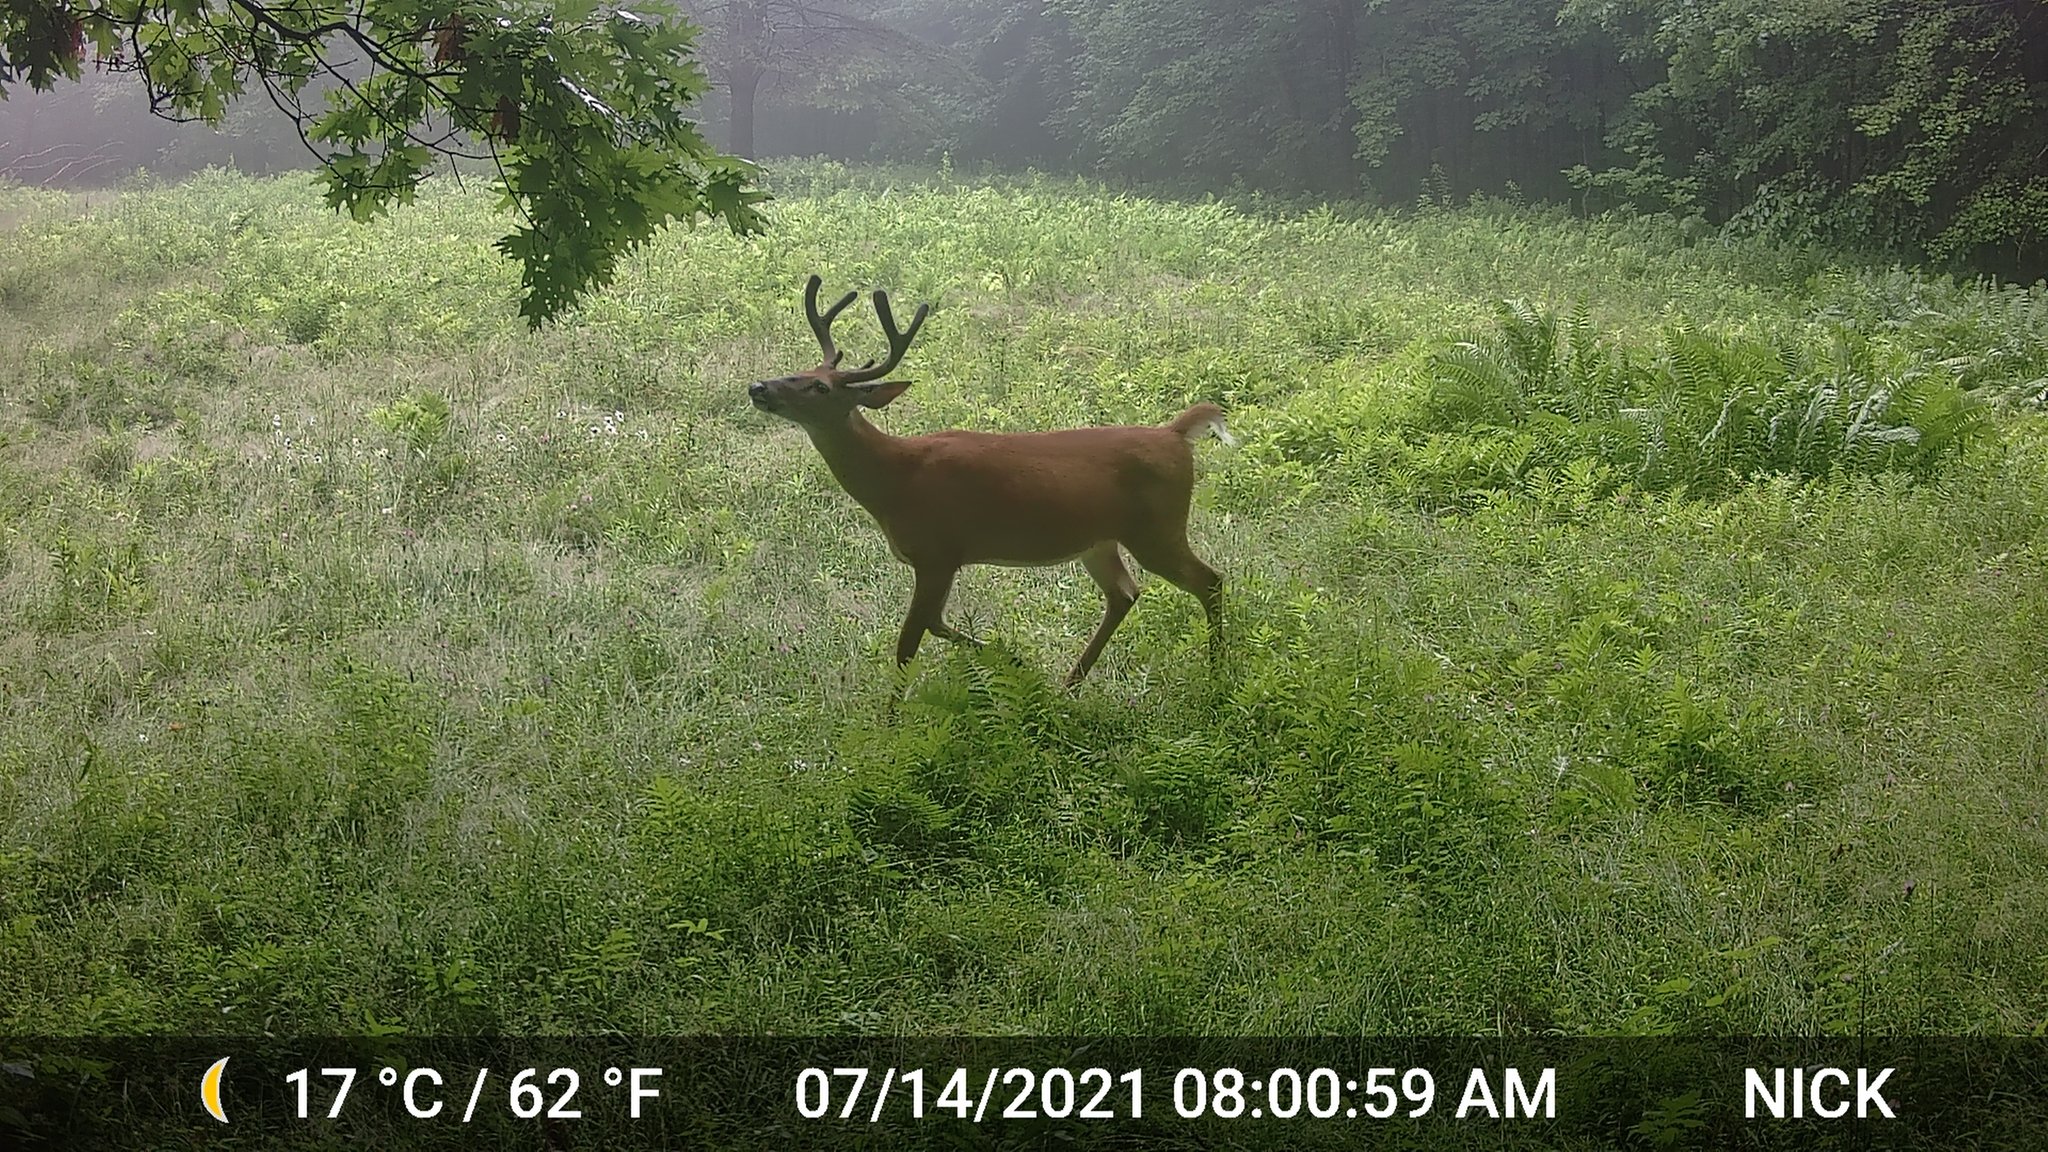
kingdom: Animalia
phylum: Chordata
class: Mammalia
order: Artiodactyla
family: Cervidae
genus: Odocoileus
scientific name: Odocoileus virginianus
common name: White-tailed deer
